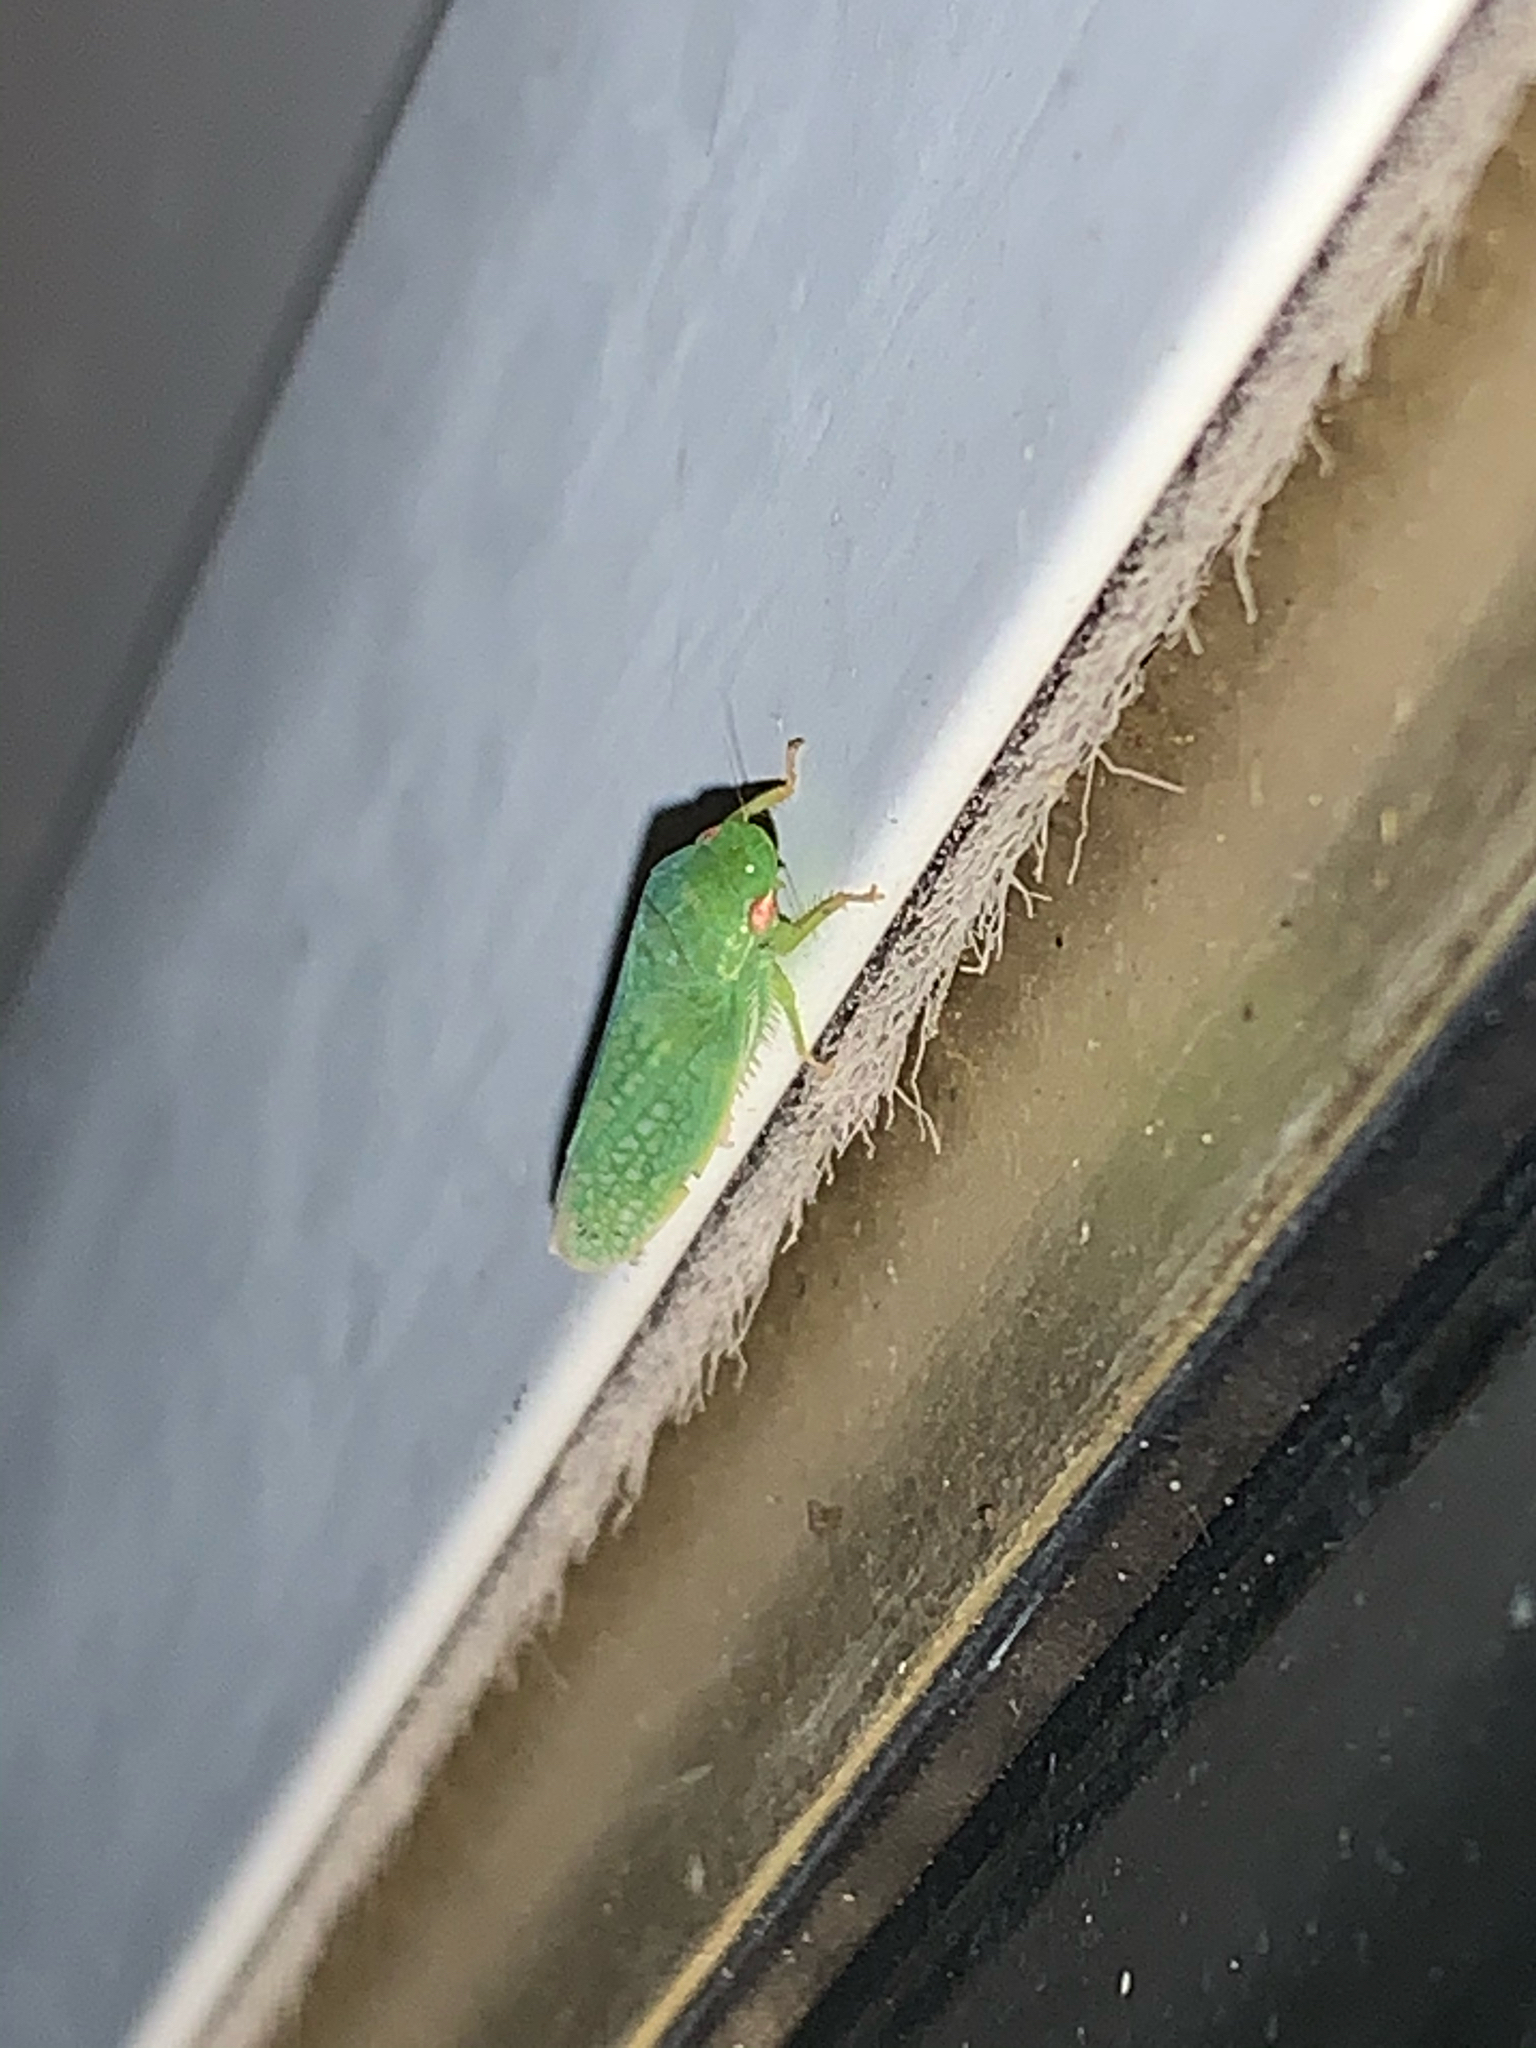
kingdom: Animalia
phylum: Arthropoda
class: Insecta
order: Hemiptera
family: Cicadellidae
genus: Gyponana
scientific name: Gyponana
